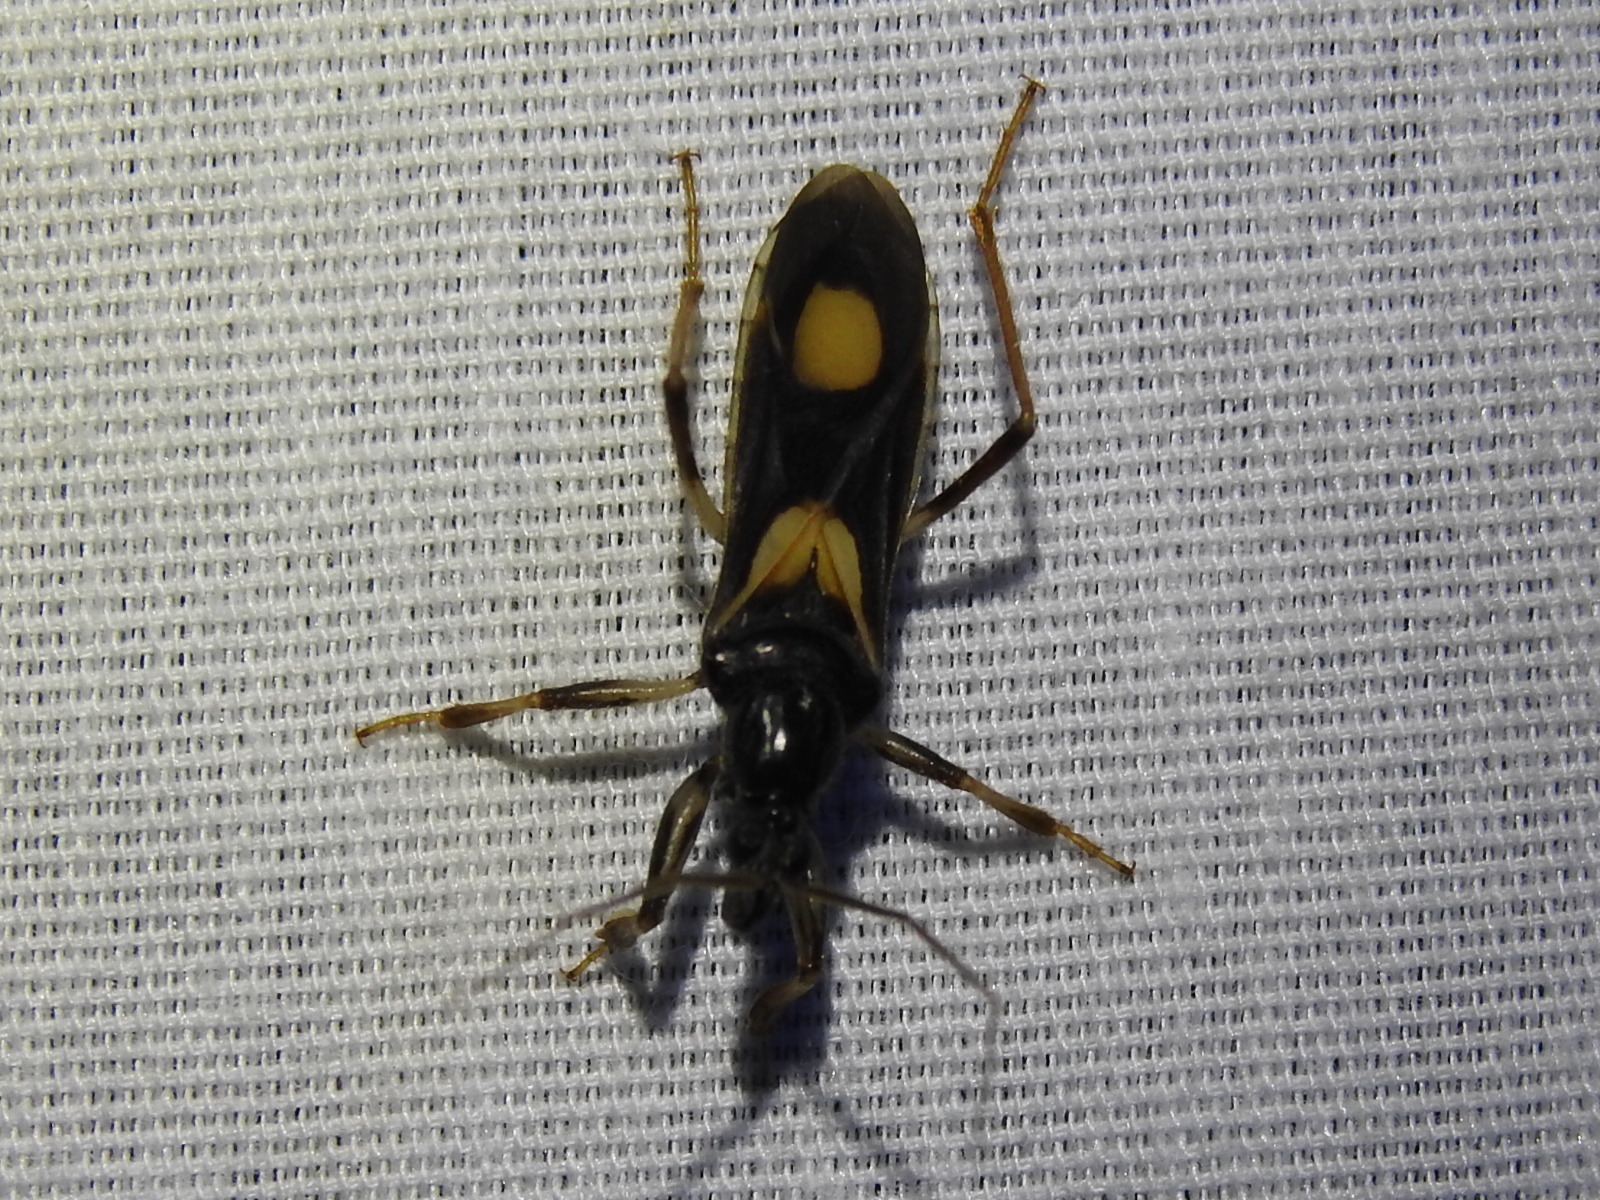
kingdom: Animalia
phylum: Arthropoda
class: Insecta
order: Hemiptera
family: Reduviidae
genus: Rasahus
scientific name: Rasahus hamatus
